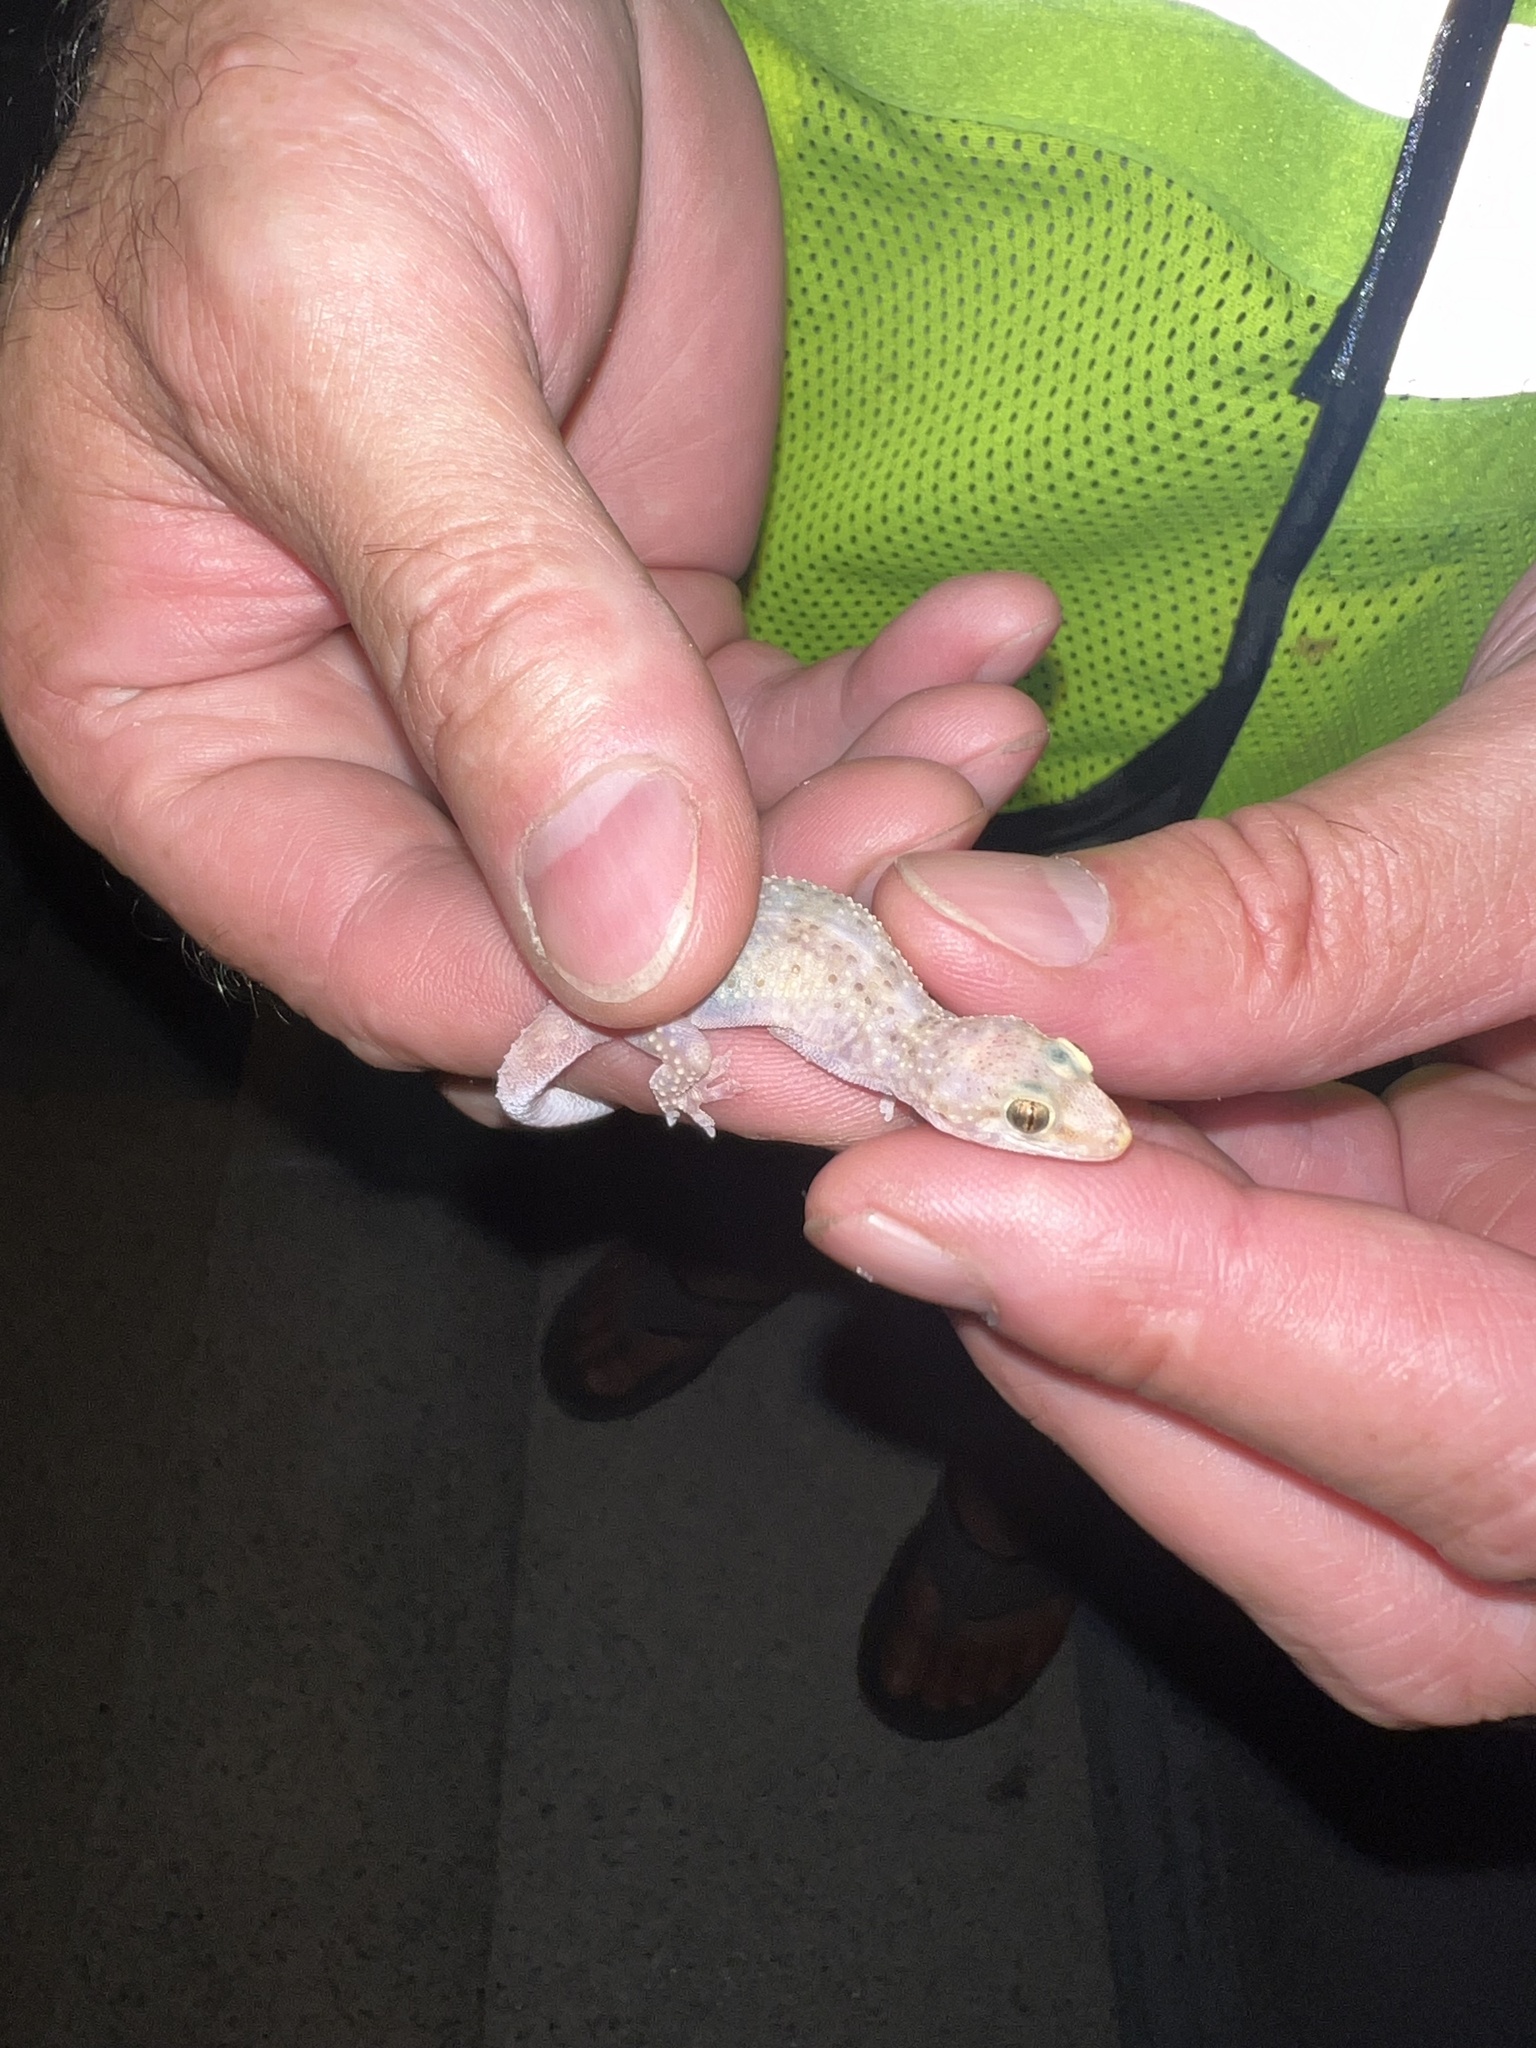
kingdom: Animalia
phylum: Chordata
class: Squamata
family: Gekkonidae
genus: Hemidactylus
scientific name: Hemidactylus turcicus
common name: Turkish gecko
